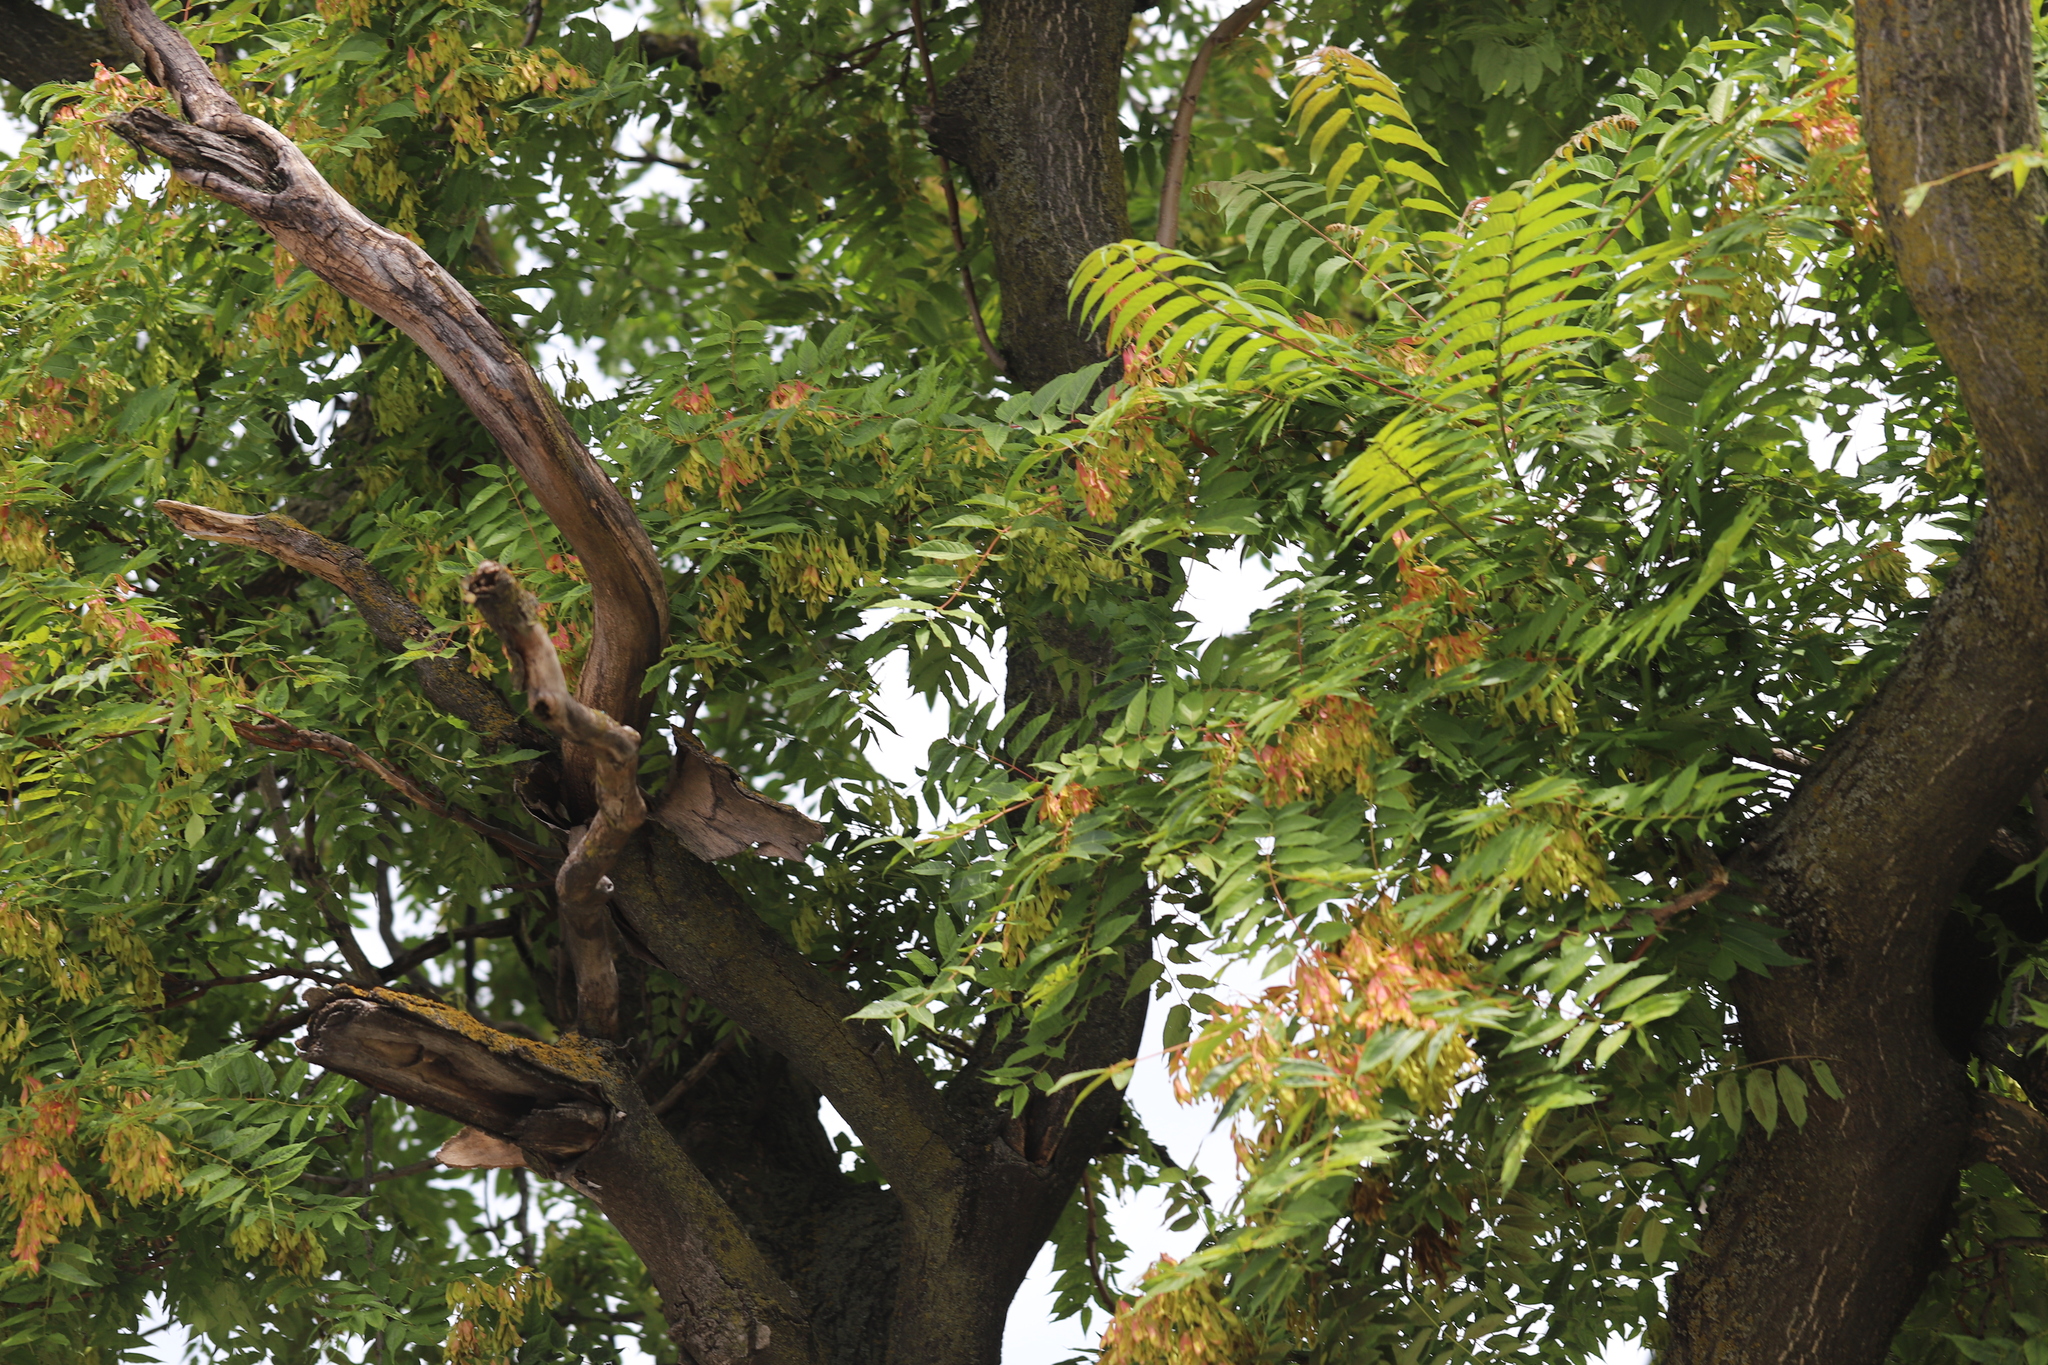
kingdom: Plantae
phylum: Tracheophyta
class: Magnoliopsida
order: Sapindales
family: Simaroubaceae
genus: Ailanthus
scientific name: Ailanthus altissima
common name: Tree-of-heaven
